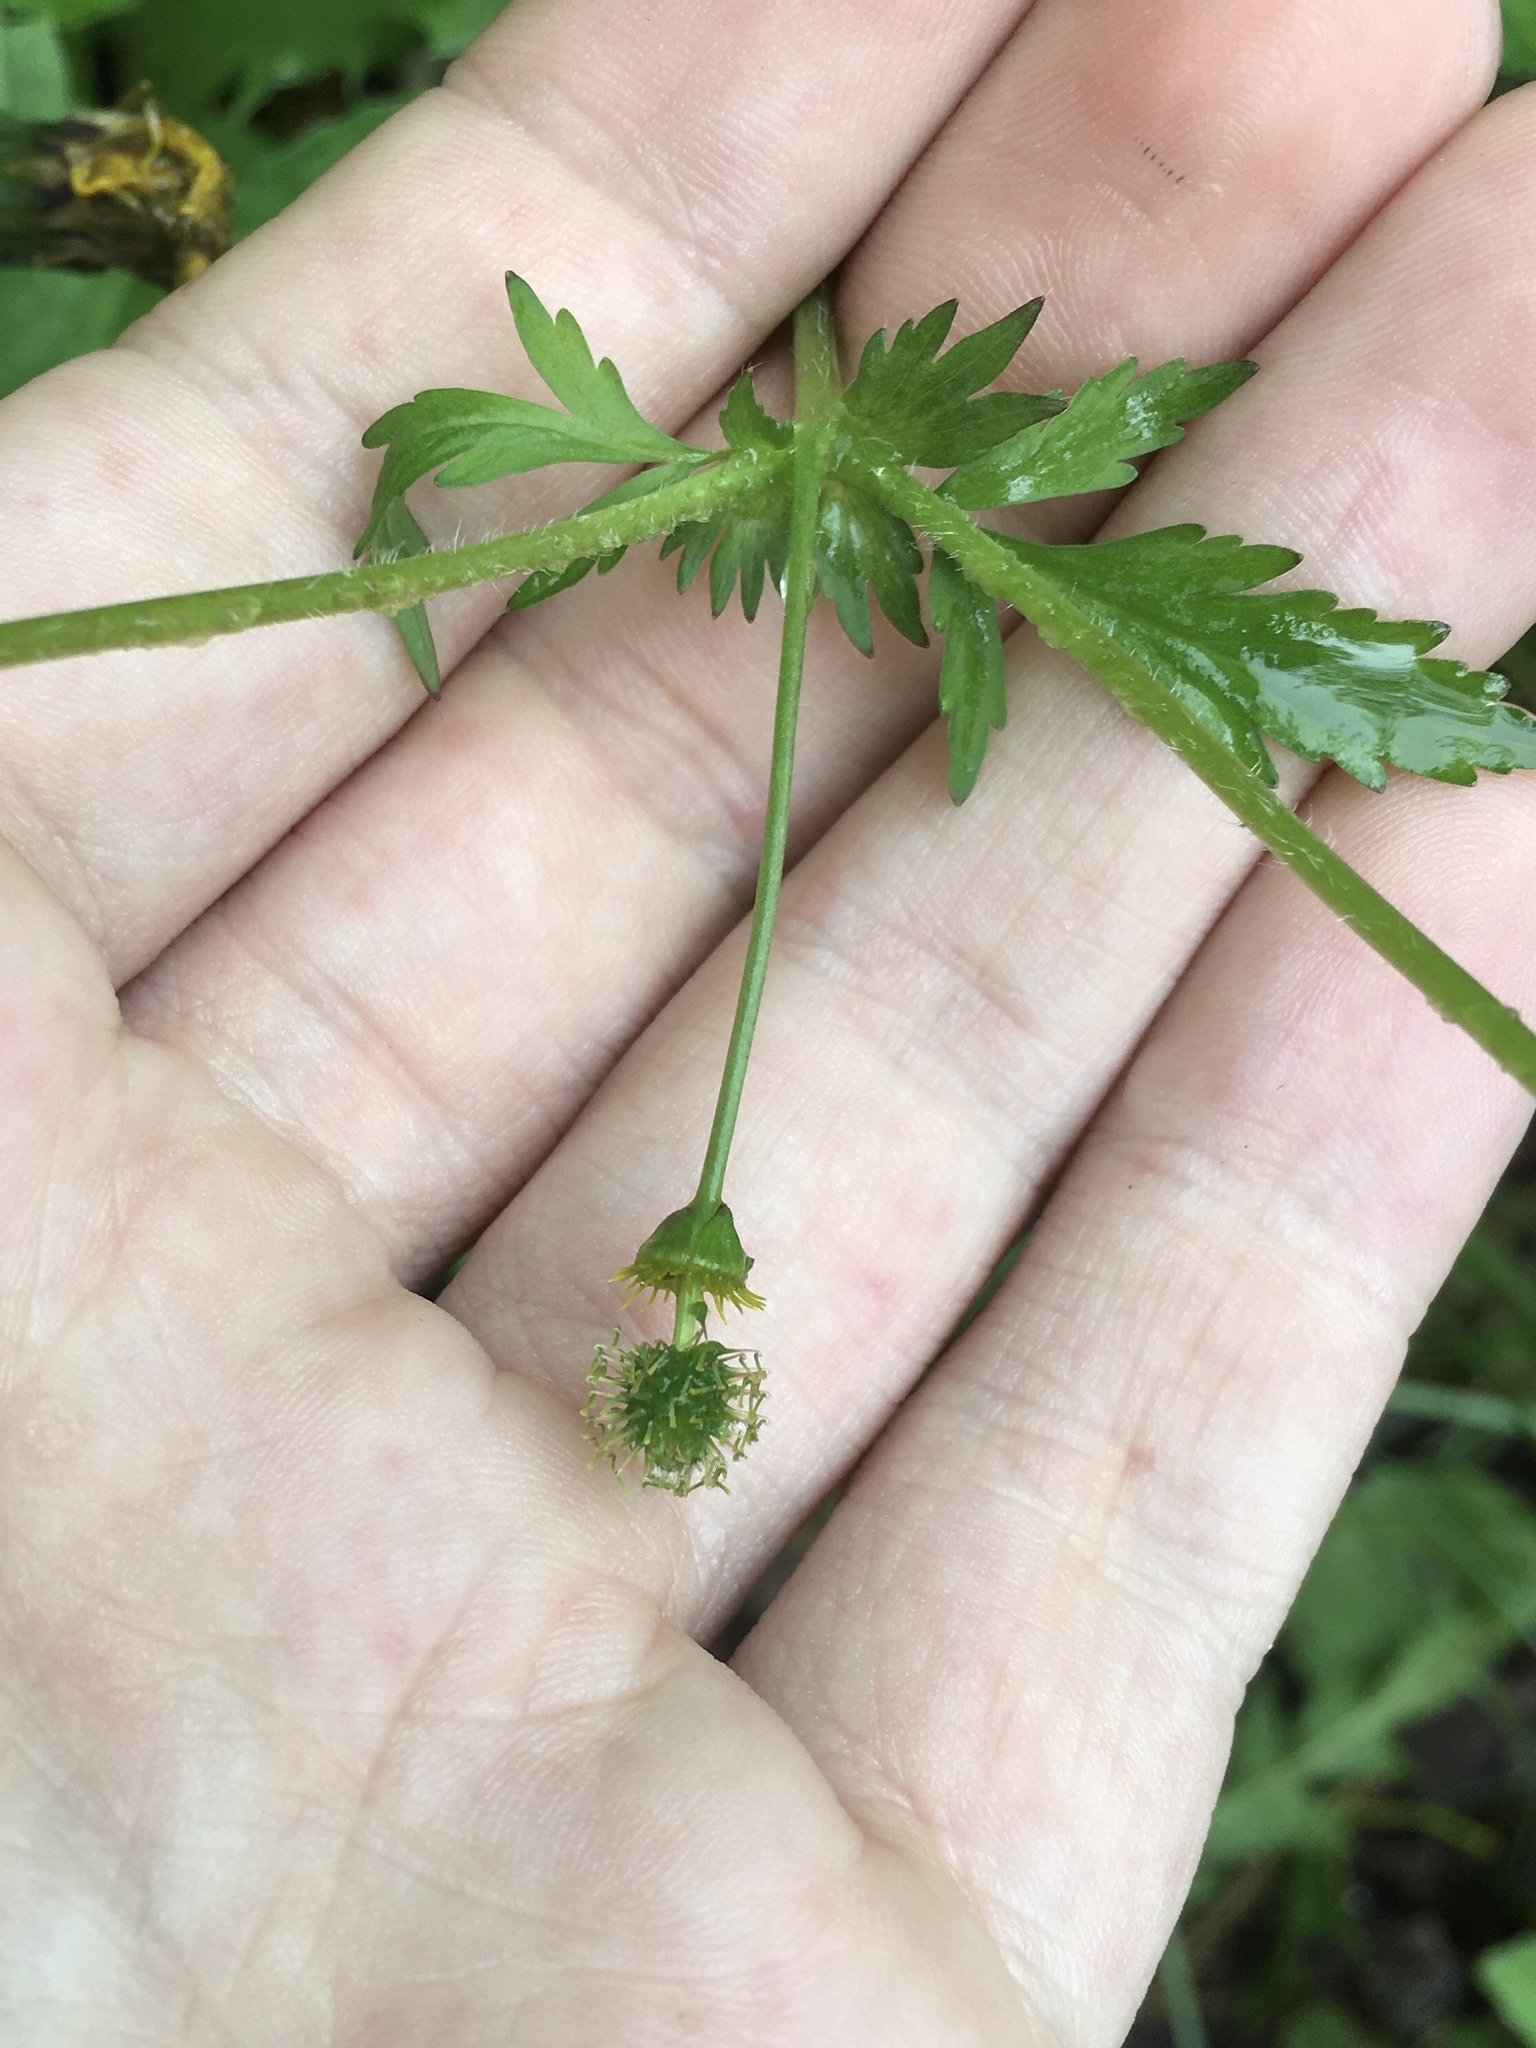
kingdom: Plantae
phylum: Tracheophyta
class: Magnoliopsida
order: Rosales
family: Rosaceae
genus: Geum
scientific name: Geum vernum
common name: Spring avens
